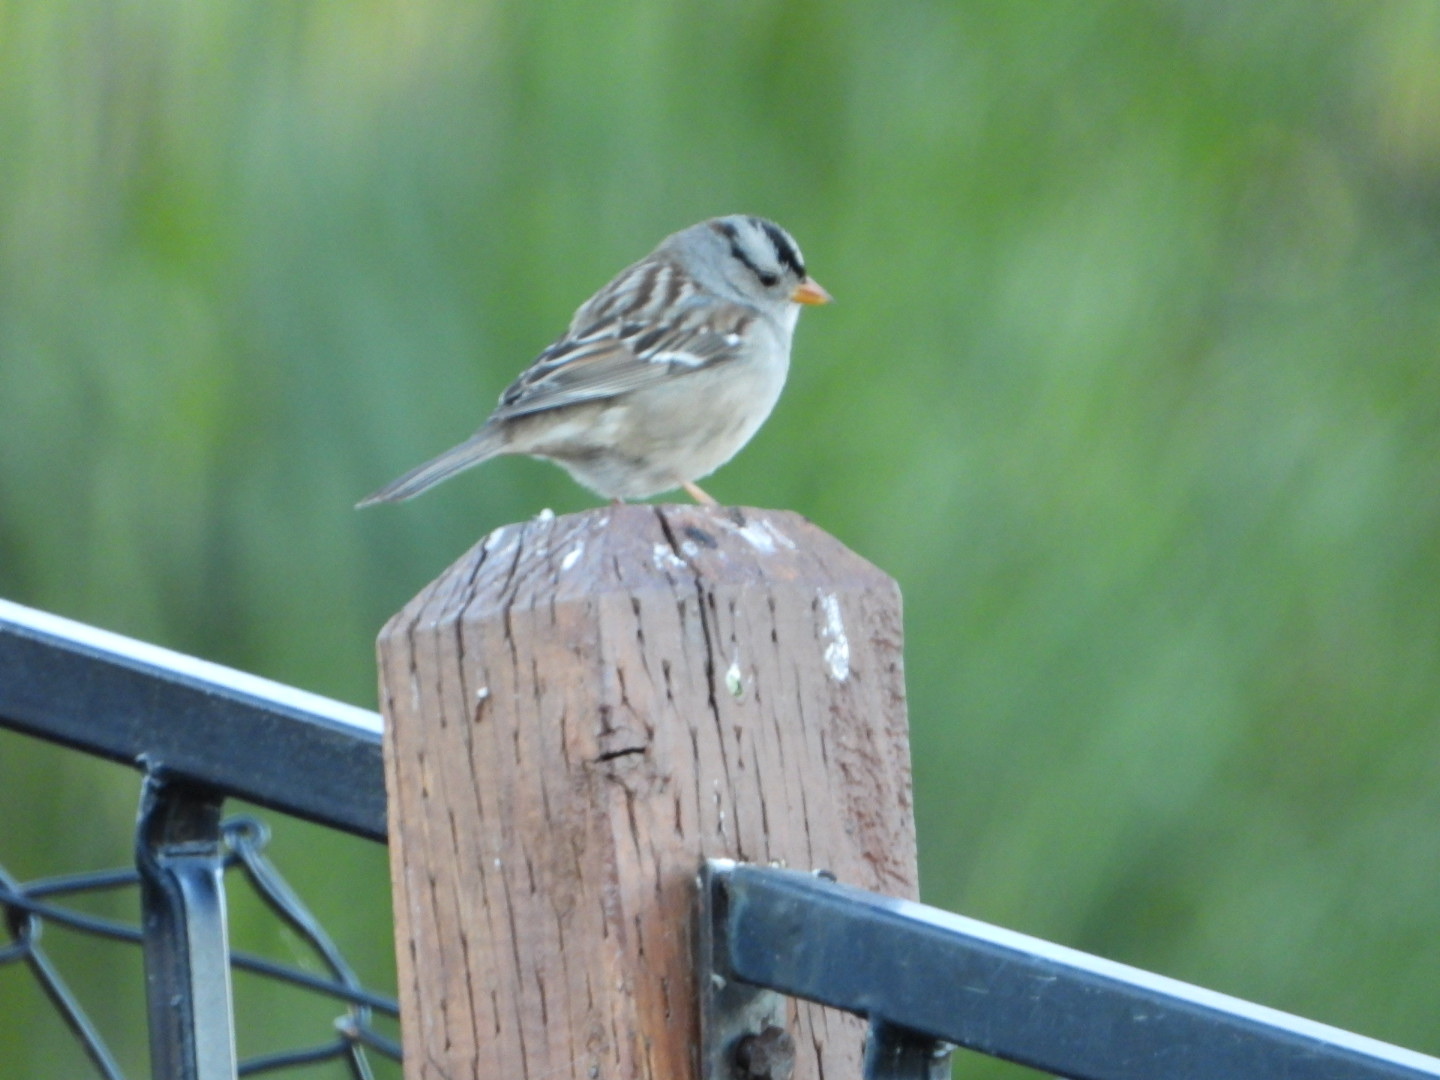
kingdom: Animalia
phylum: Chordata
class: Aves
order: Passeriformes
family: Passerellidae
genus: Zonotrichia
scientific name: Zonotrichia leucophrys
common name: White-crowned sparrow
